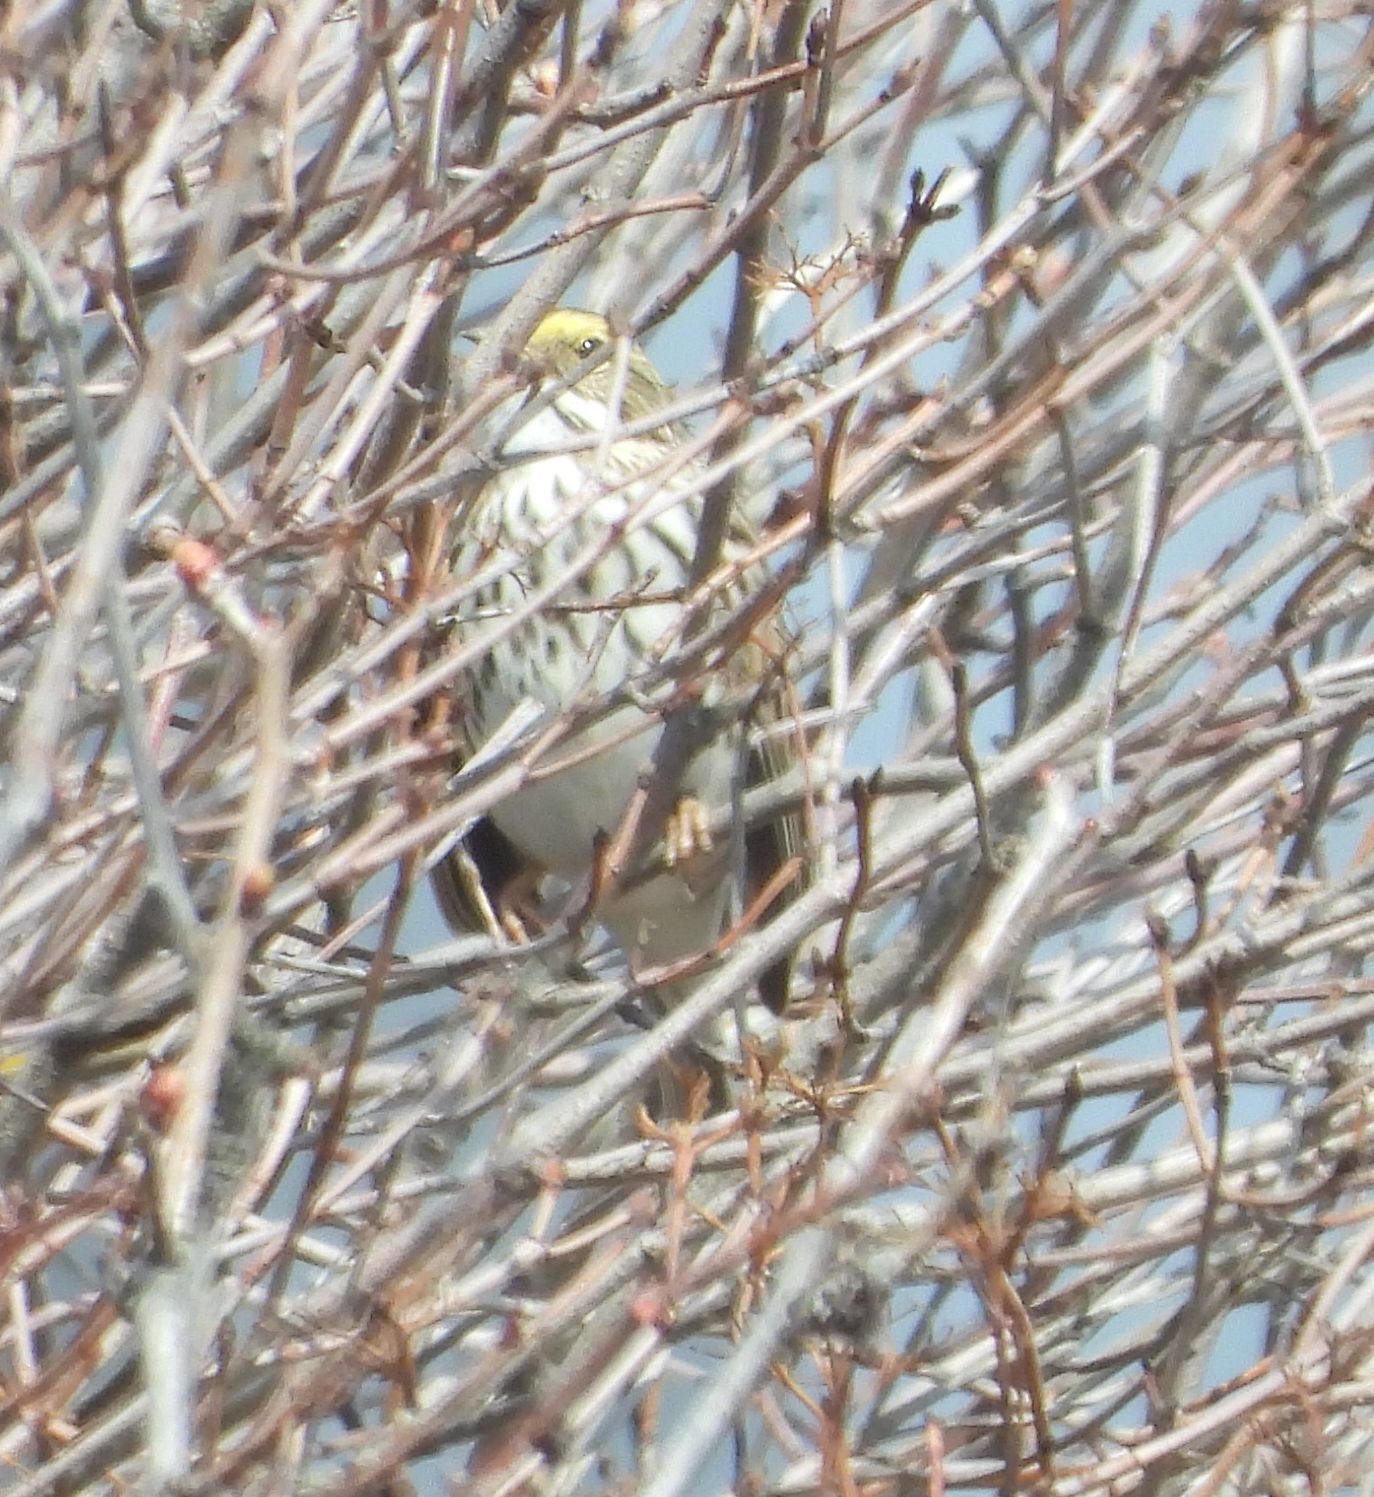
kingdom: Animalia
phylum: Chordata
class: Aves
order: Passeriformes
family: Passerellidae
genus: Passerculus
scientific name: Passerculus sandwichensis
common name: Savannah sparrow
